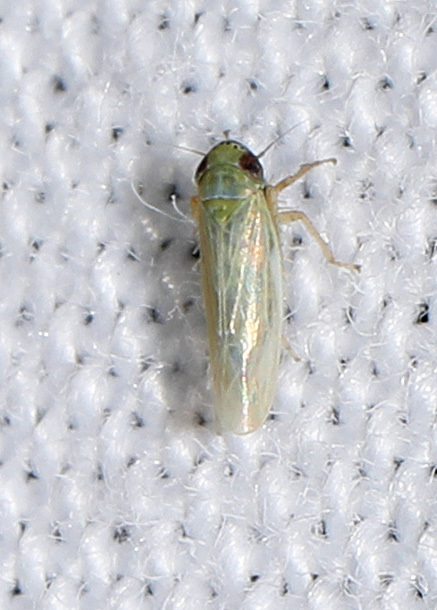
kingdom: Animalia
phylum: Arthropoda
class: Insecta
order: Hemiptera
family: Cicadellidae
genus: Graminella
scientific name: Graminella nigrifrons
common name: Blackfaced leafhopper
